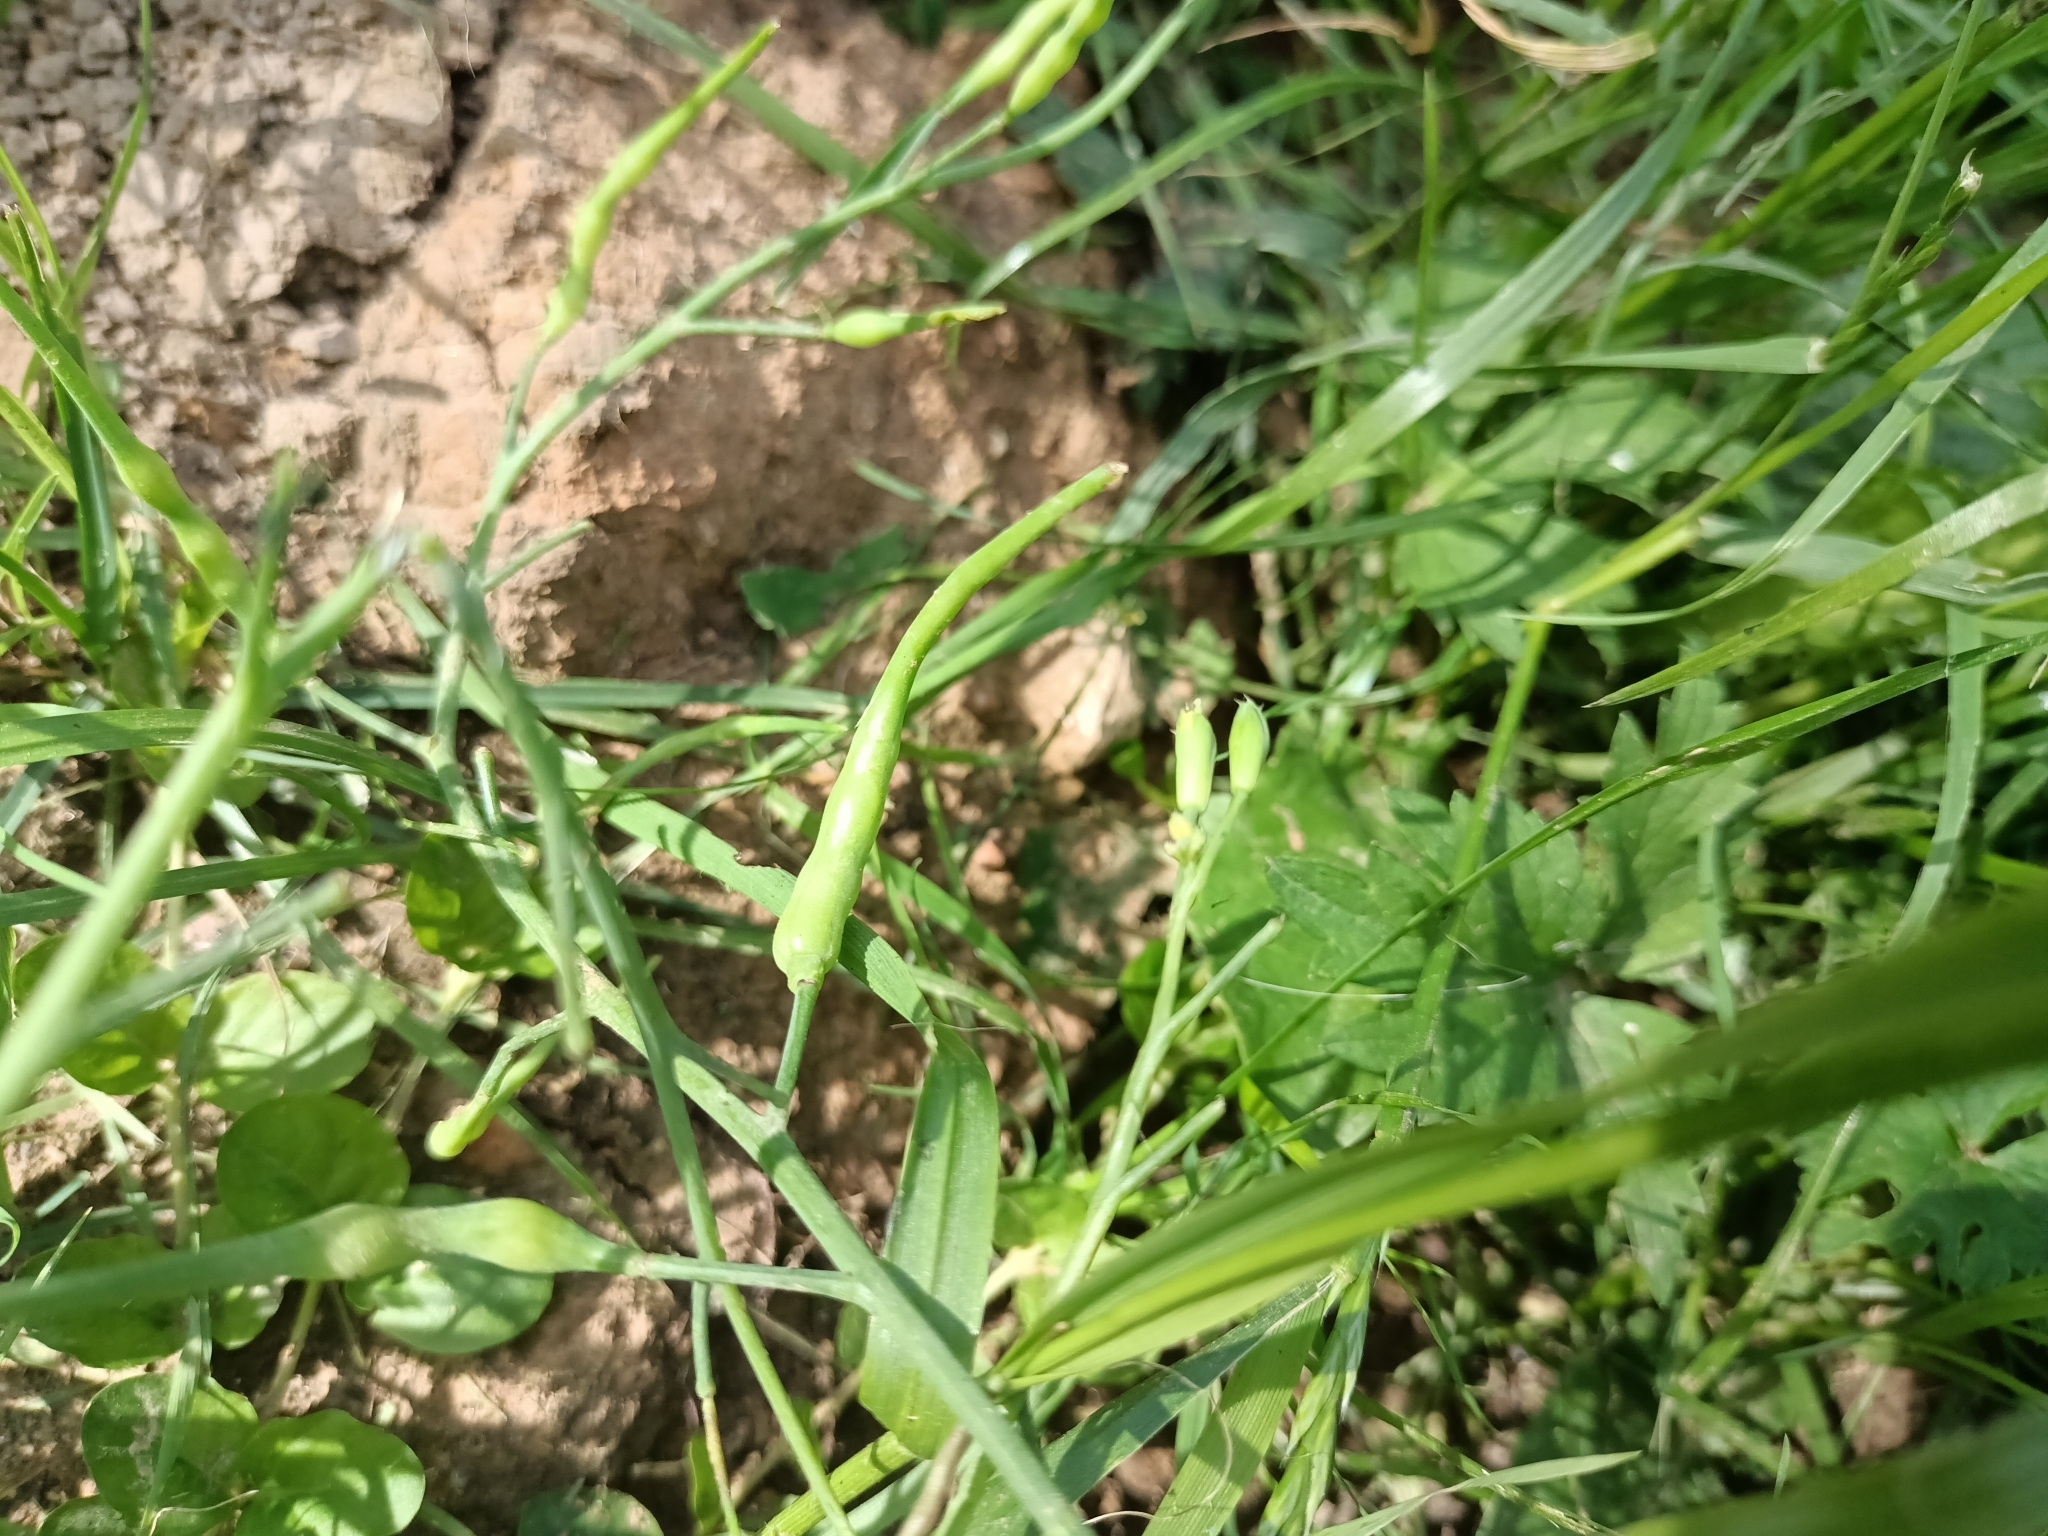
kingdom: Plantae
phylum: Tracheophyta
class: Magnoliopsida
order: Brassicales
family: Brassicaceae
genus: Raphanus
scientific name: Raphanus raphanistrum
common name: Wild radish
